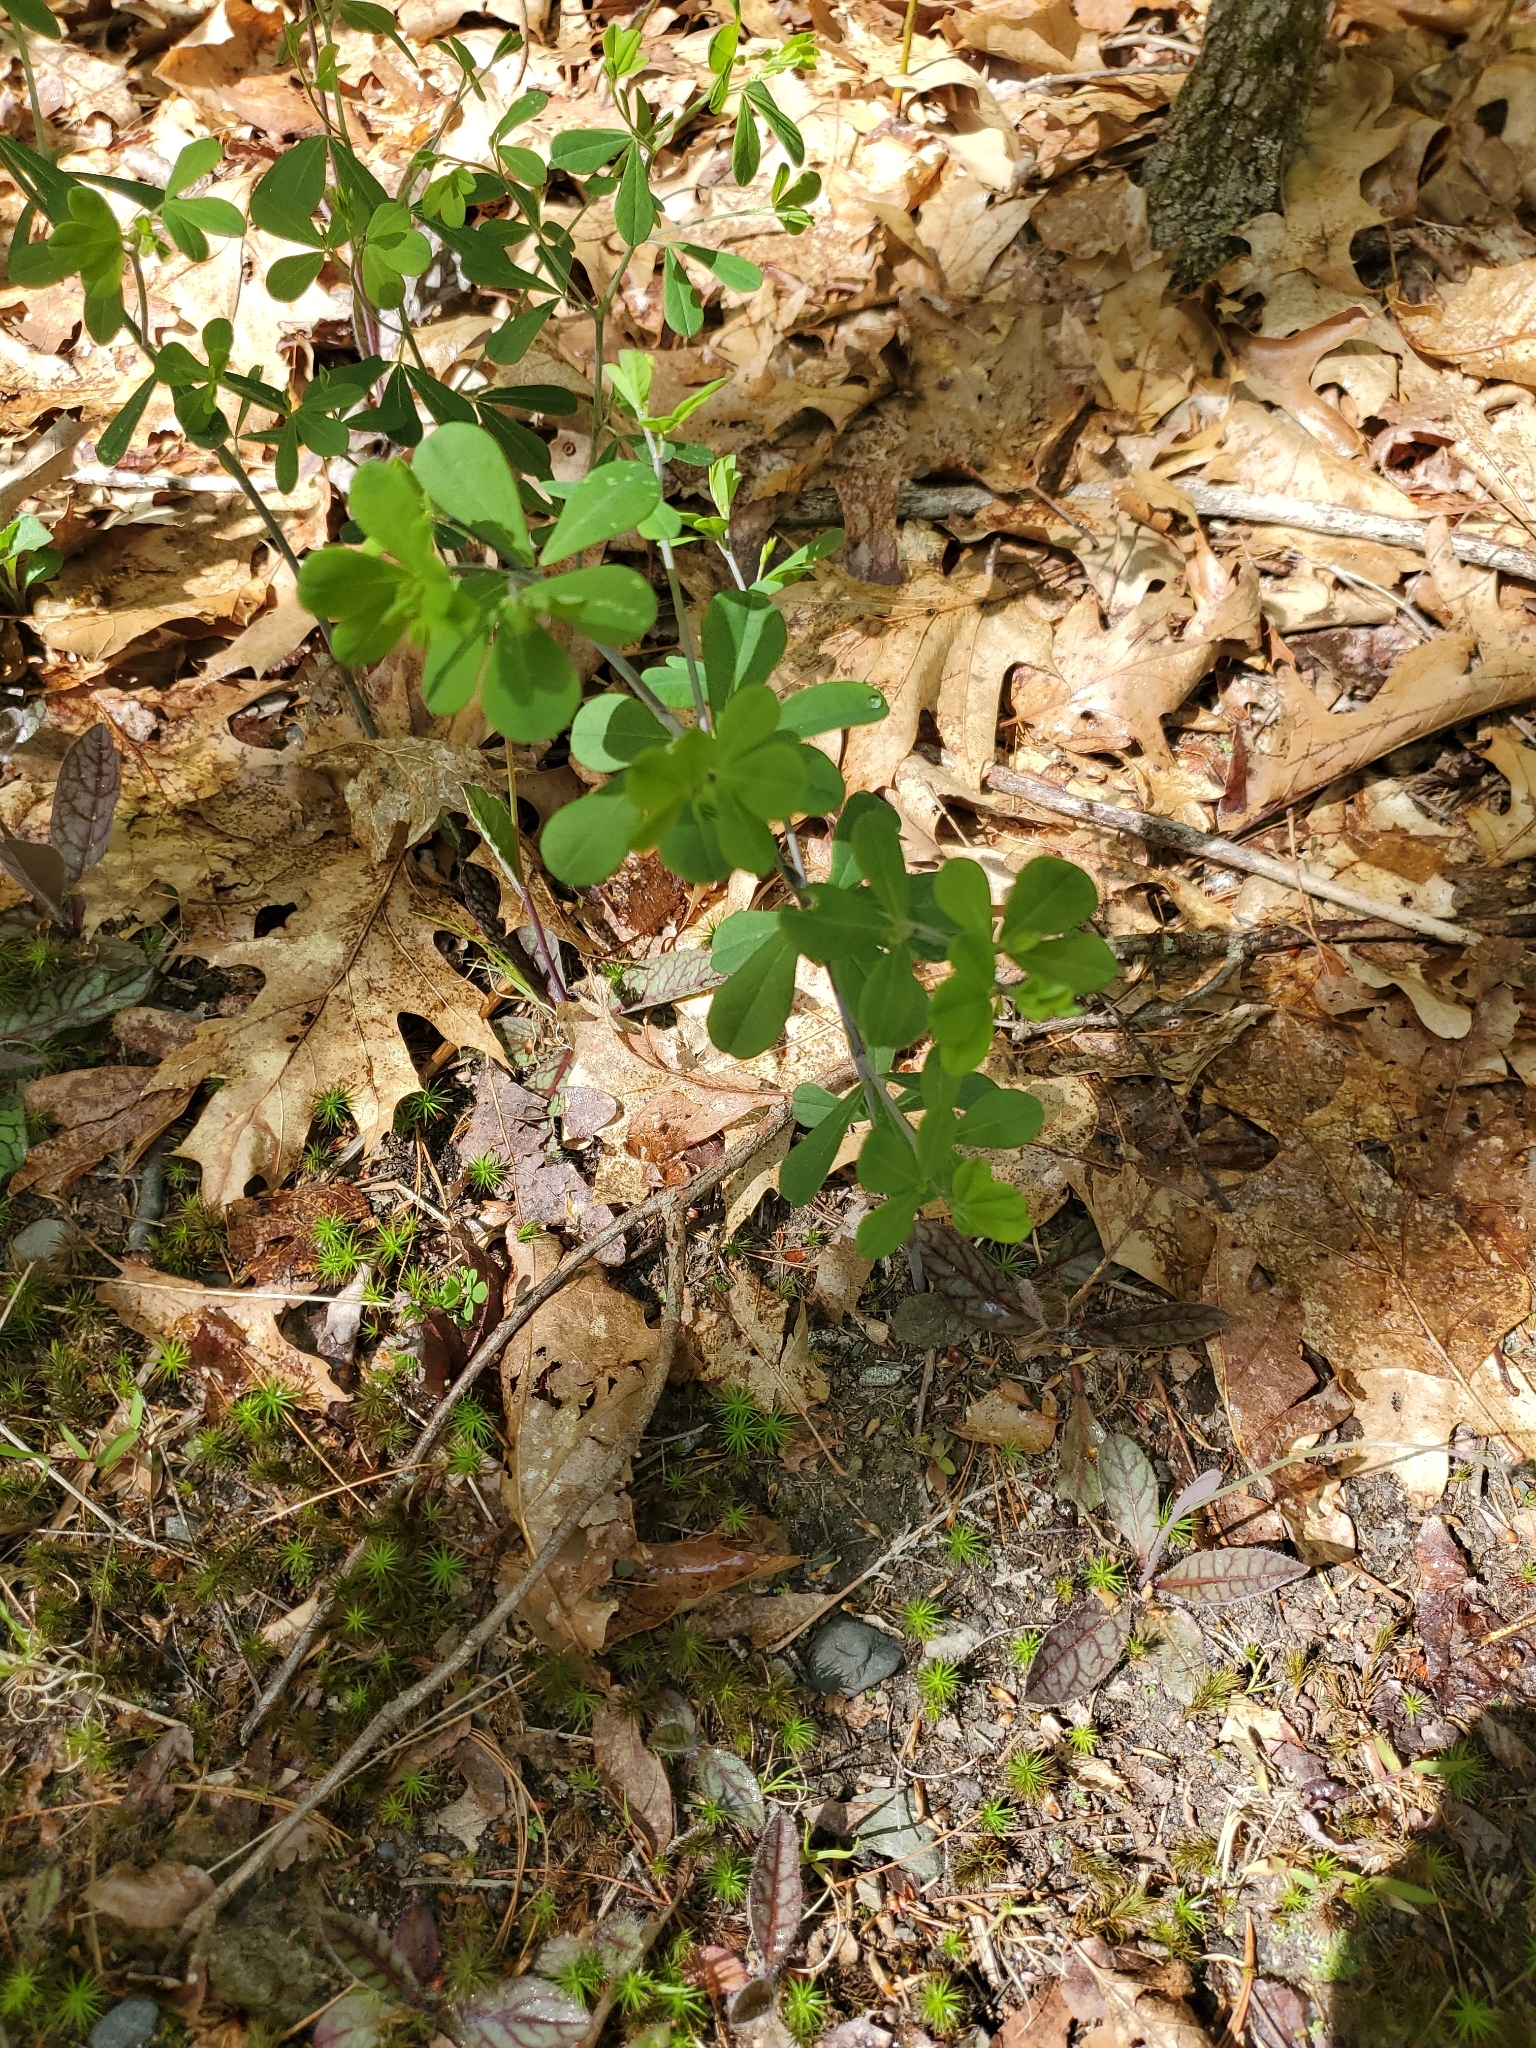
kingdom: Plantae
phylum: Tracheophyta
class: Magnoliopsida
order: Fabales
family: Fabaceae
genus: Baptisia
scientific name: Baptisia tinctoria
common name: Wild indigo
